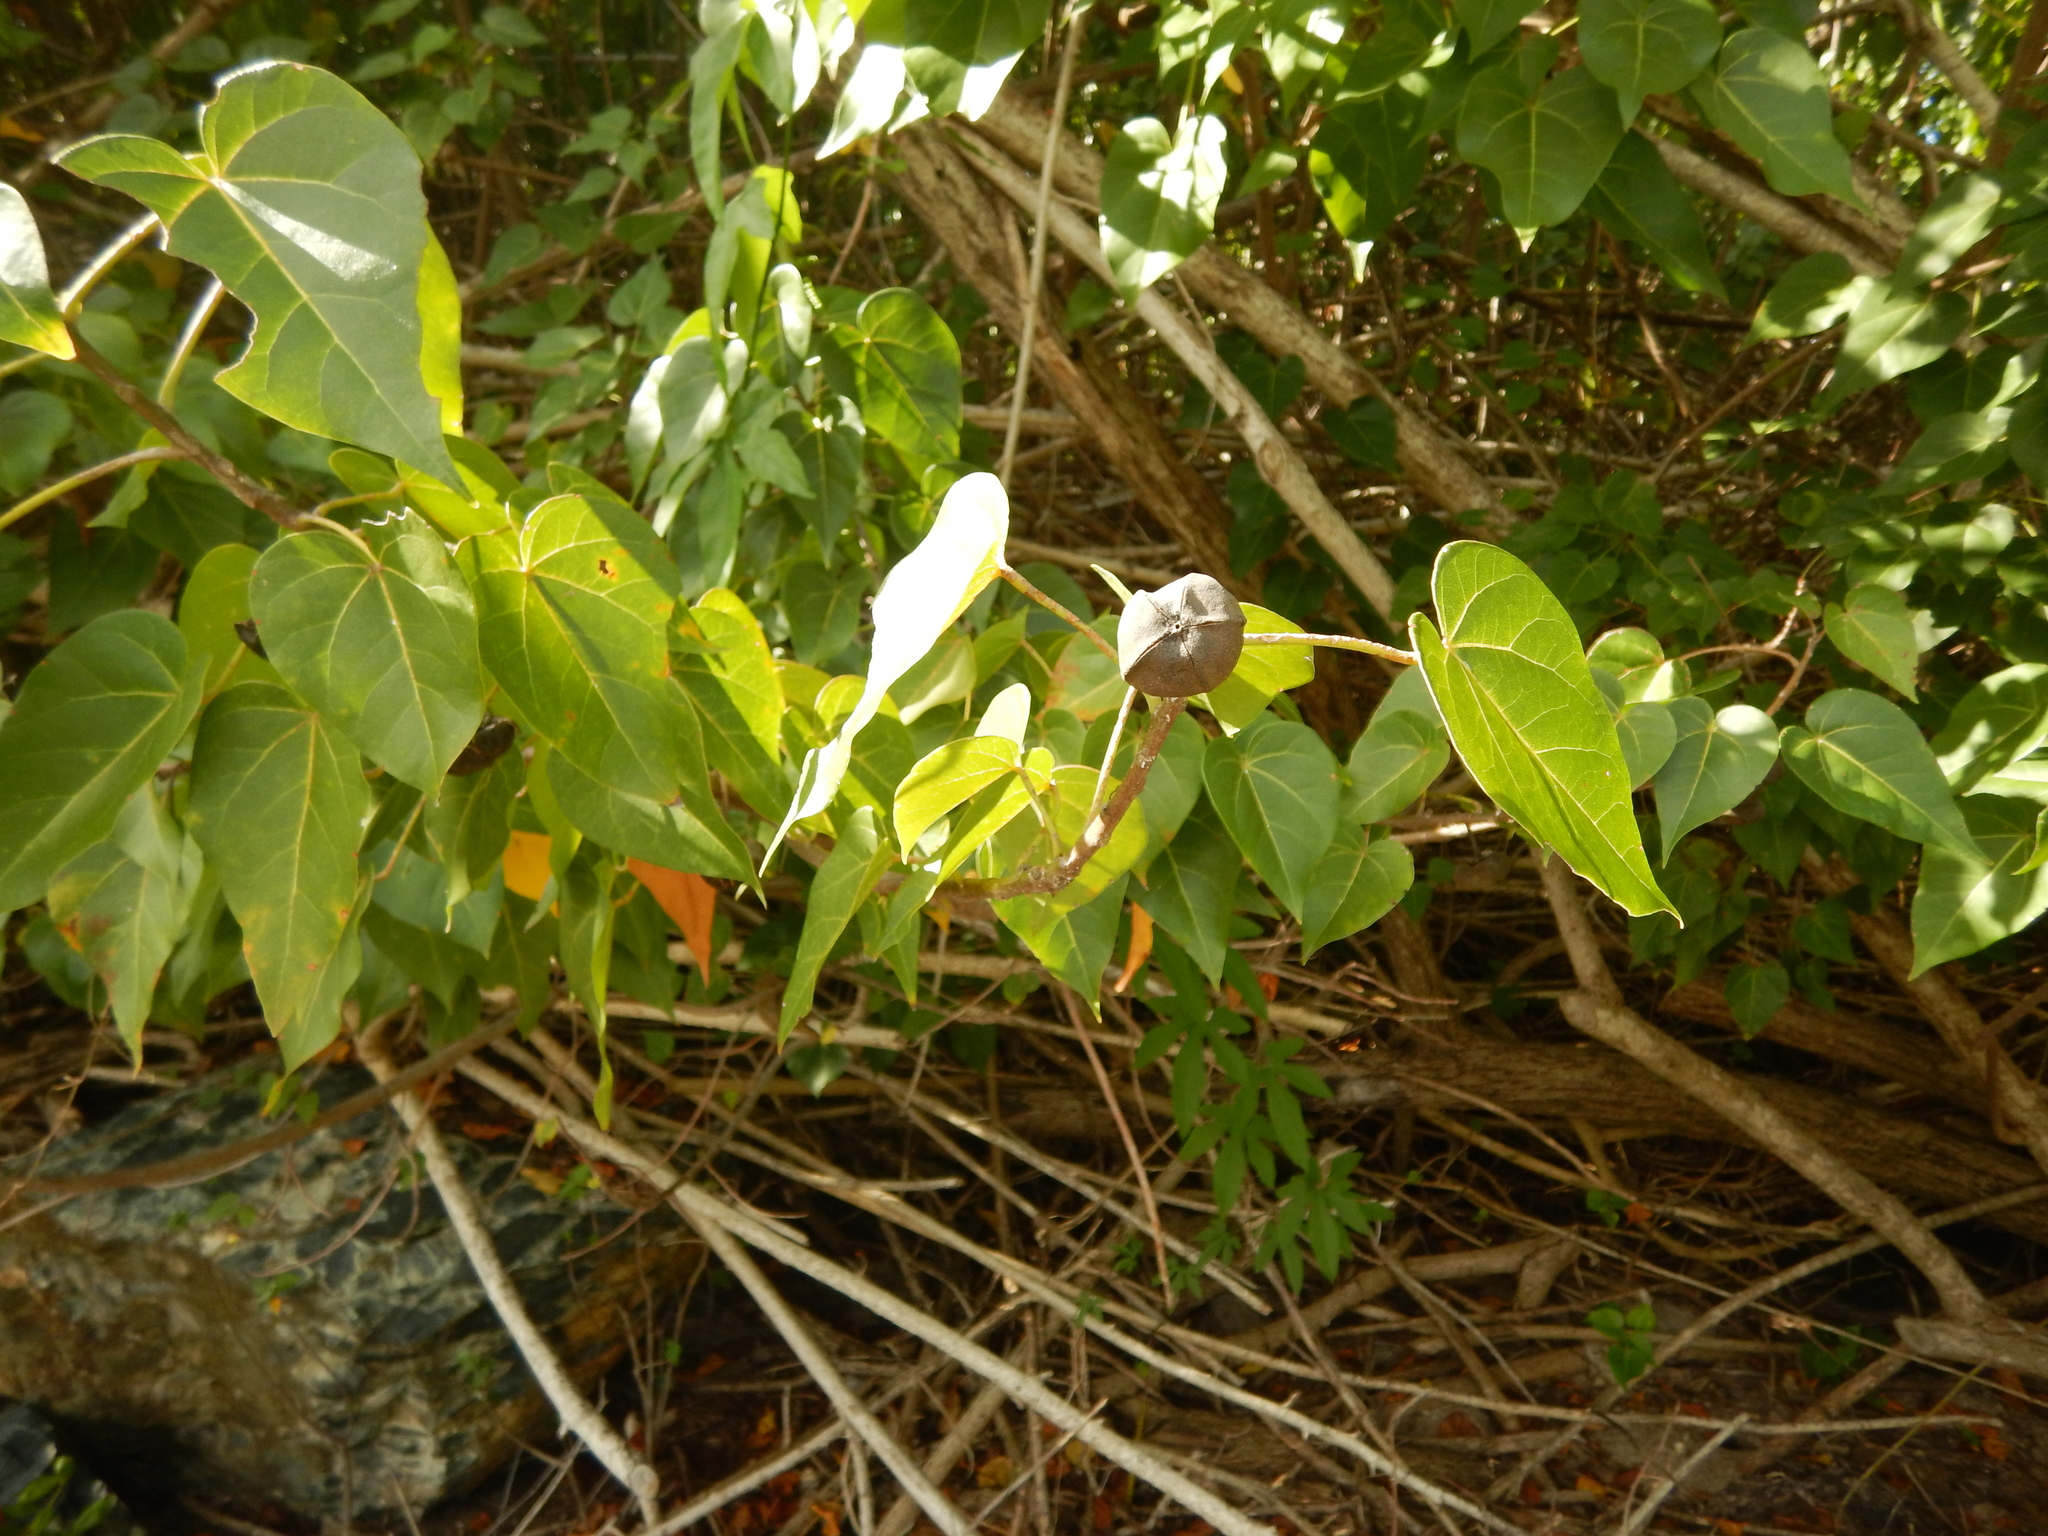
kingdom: Plantae
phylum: Tracheophyta
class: Magnoliopsida
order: Malvales
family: Malvaceae
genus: Thespesia
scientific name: Thespesia populnea
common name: Seaside mahoe
